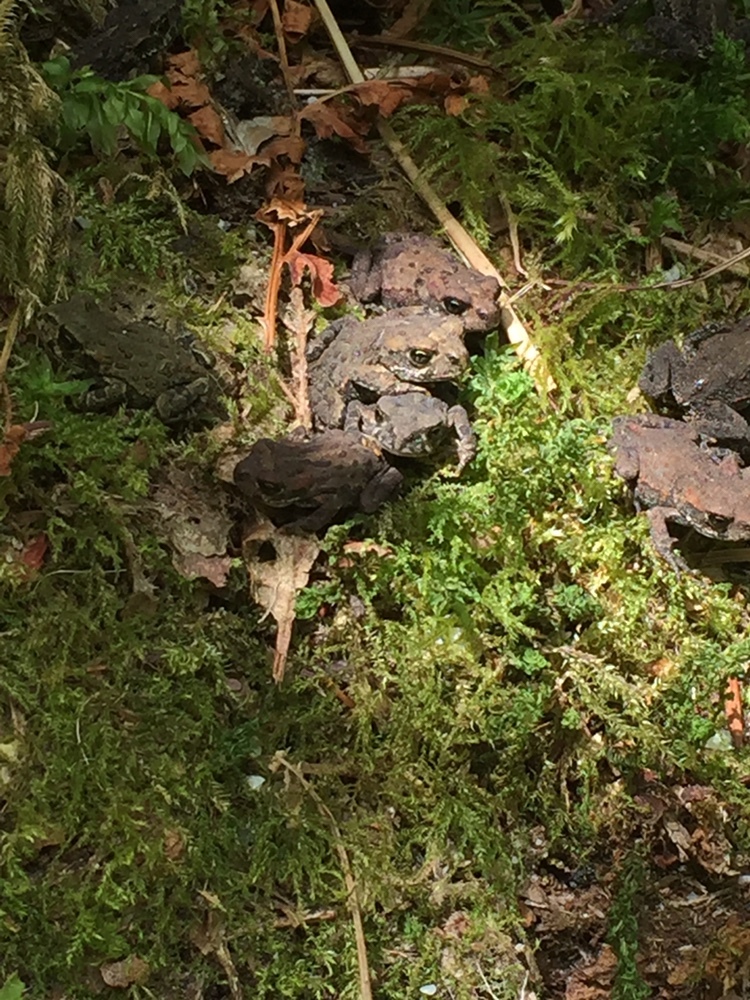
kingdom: Animalia
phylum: Chordata
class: Amphibia
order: Anura
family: Bufonidae
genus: Anaxyrus
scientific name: Anaxyrus boreas
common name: Western toad
